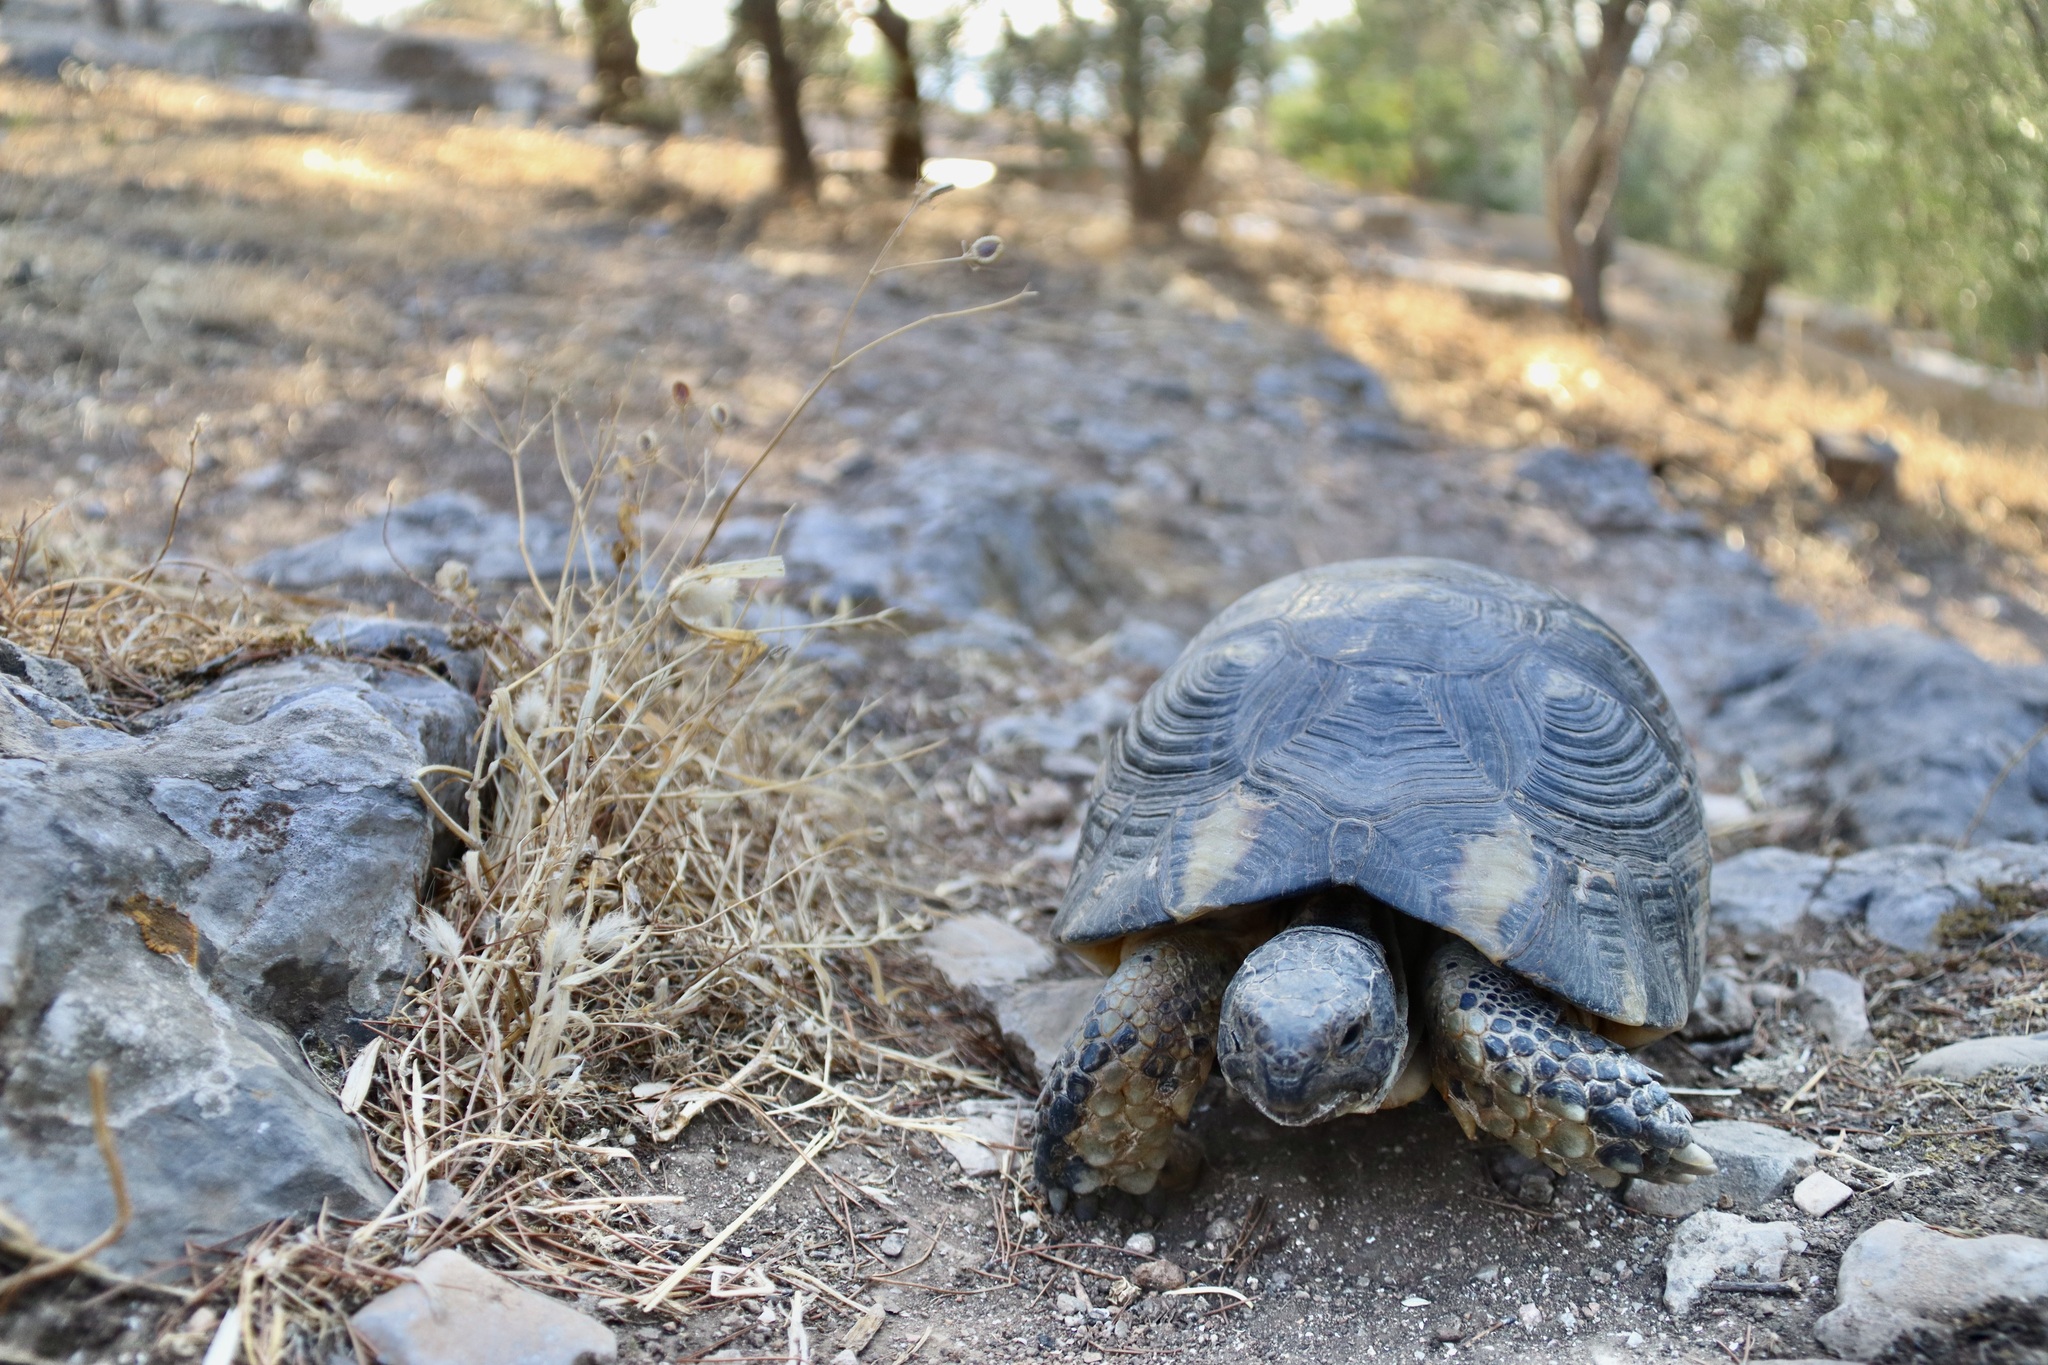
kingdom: Animalia
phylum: Chordata
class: Testudines
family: Testudinidae
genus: Testudo
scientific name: Testudo marginata
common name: Marginated tortoise
